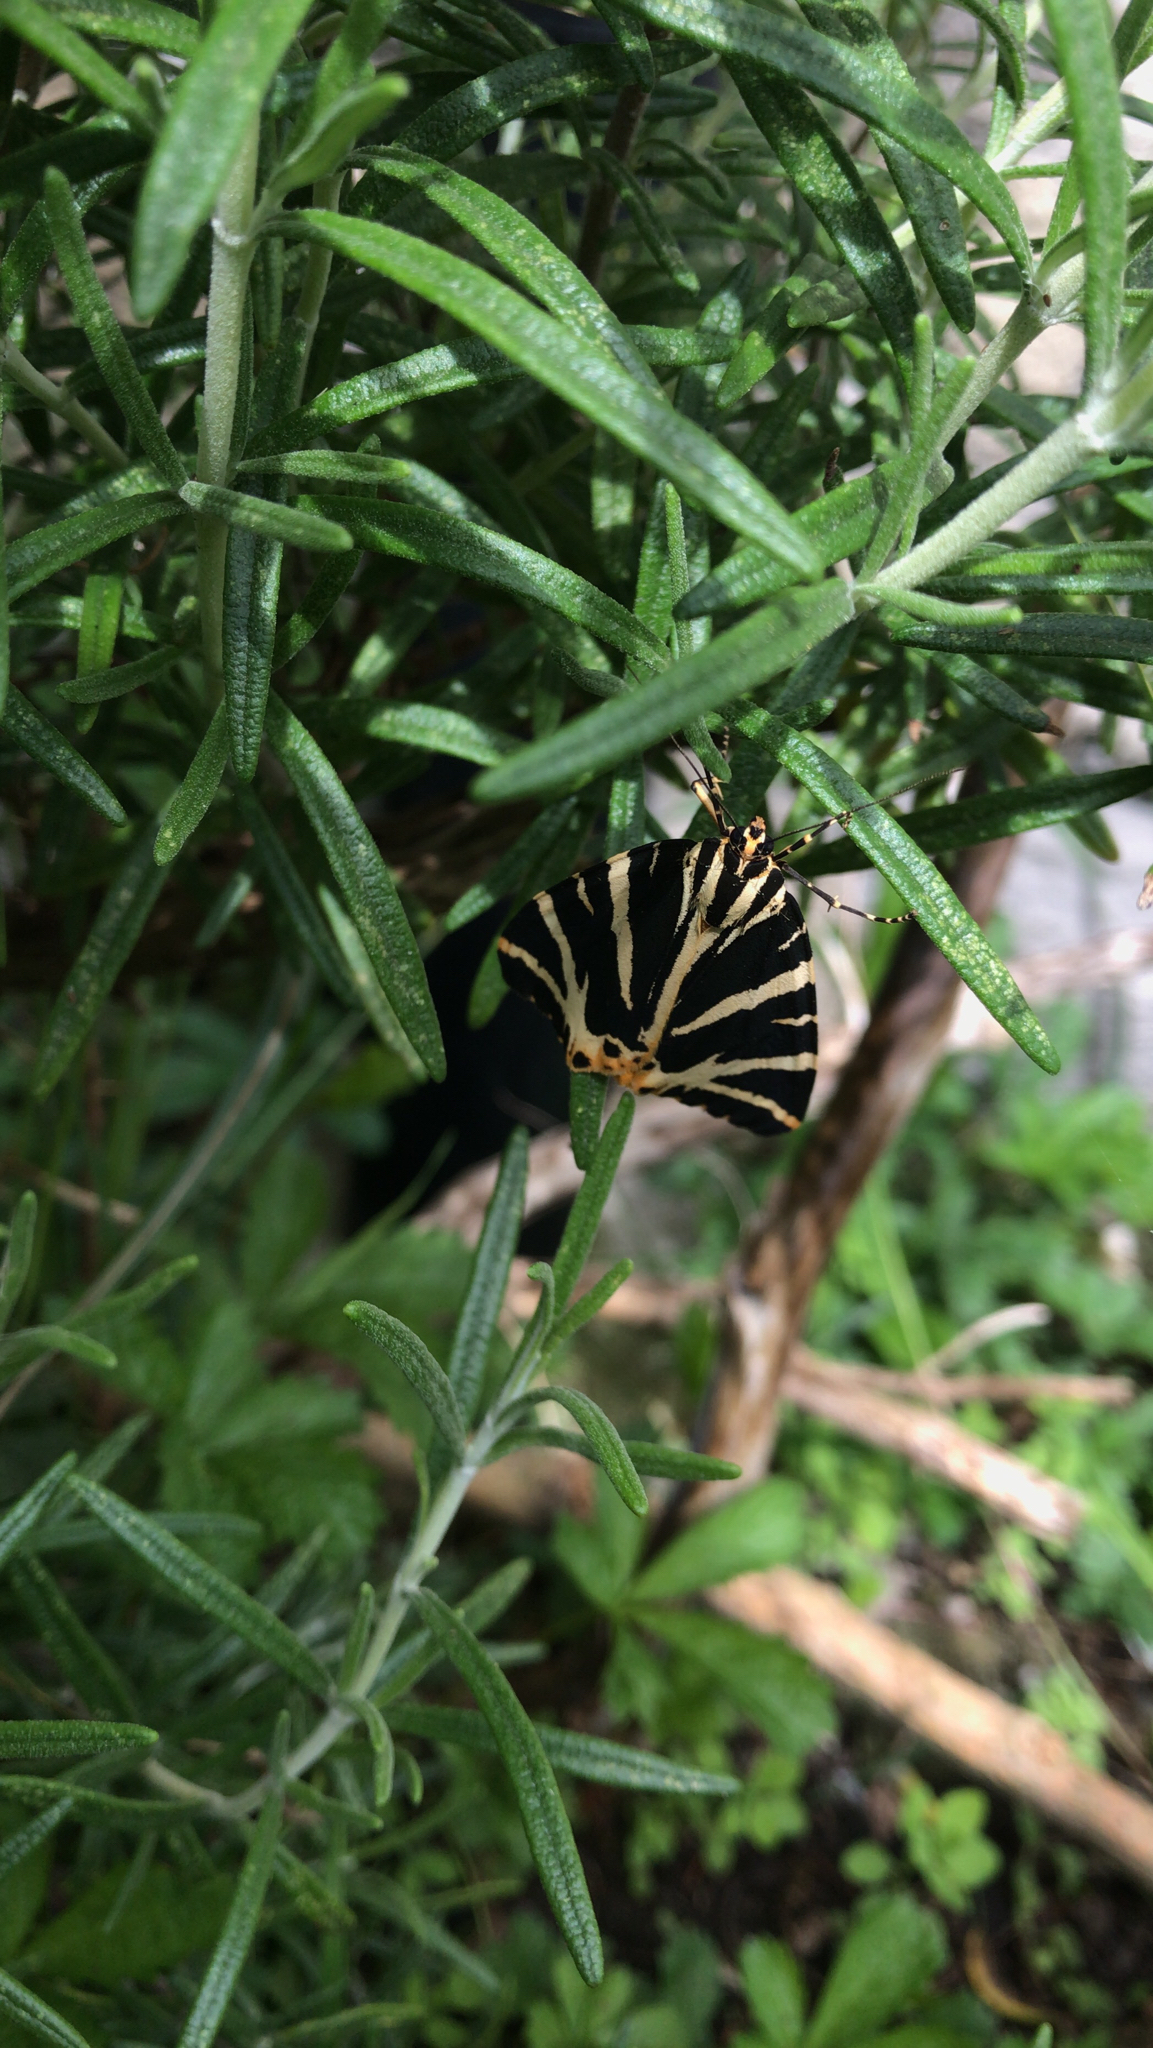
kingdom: Animalia
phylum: Arthropoda
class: Insecta
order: Lepidoptera
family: Erebidae
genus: Euplagia
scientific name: Euplagia quadripunctaria
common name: Jersey tiger
